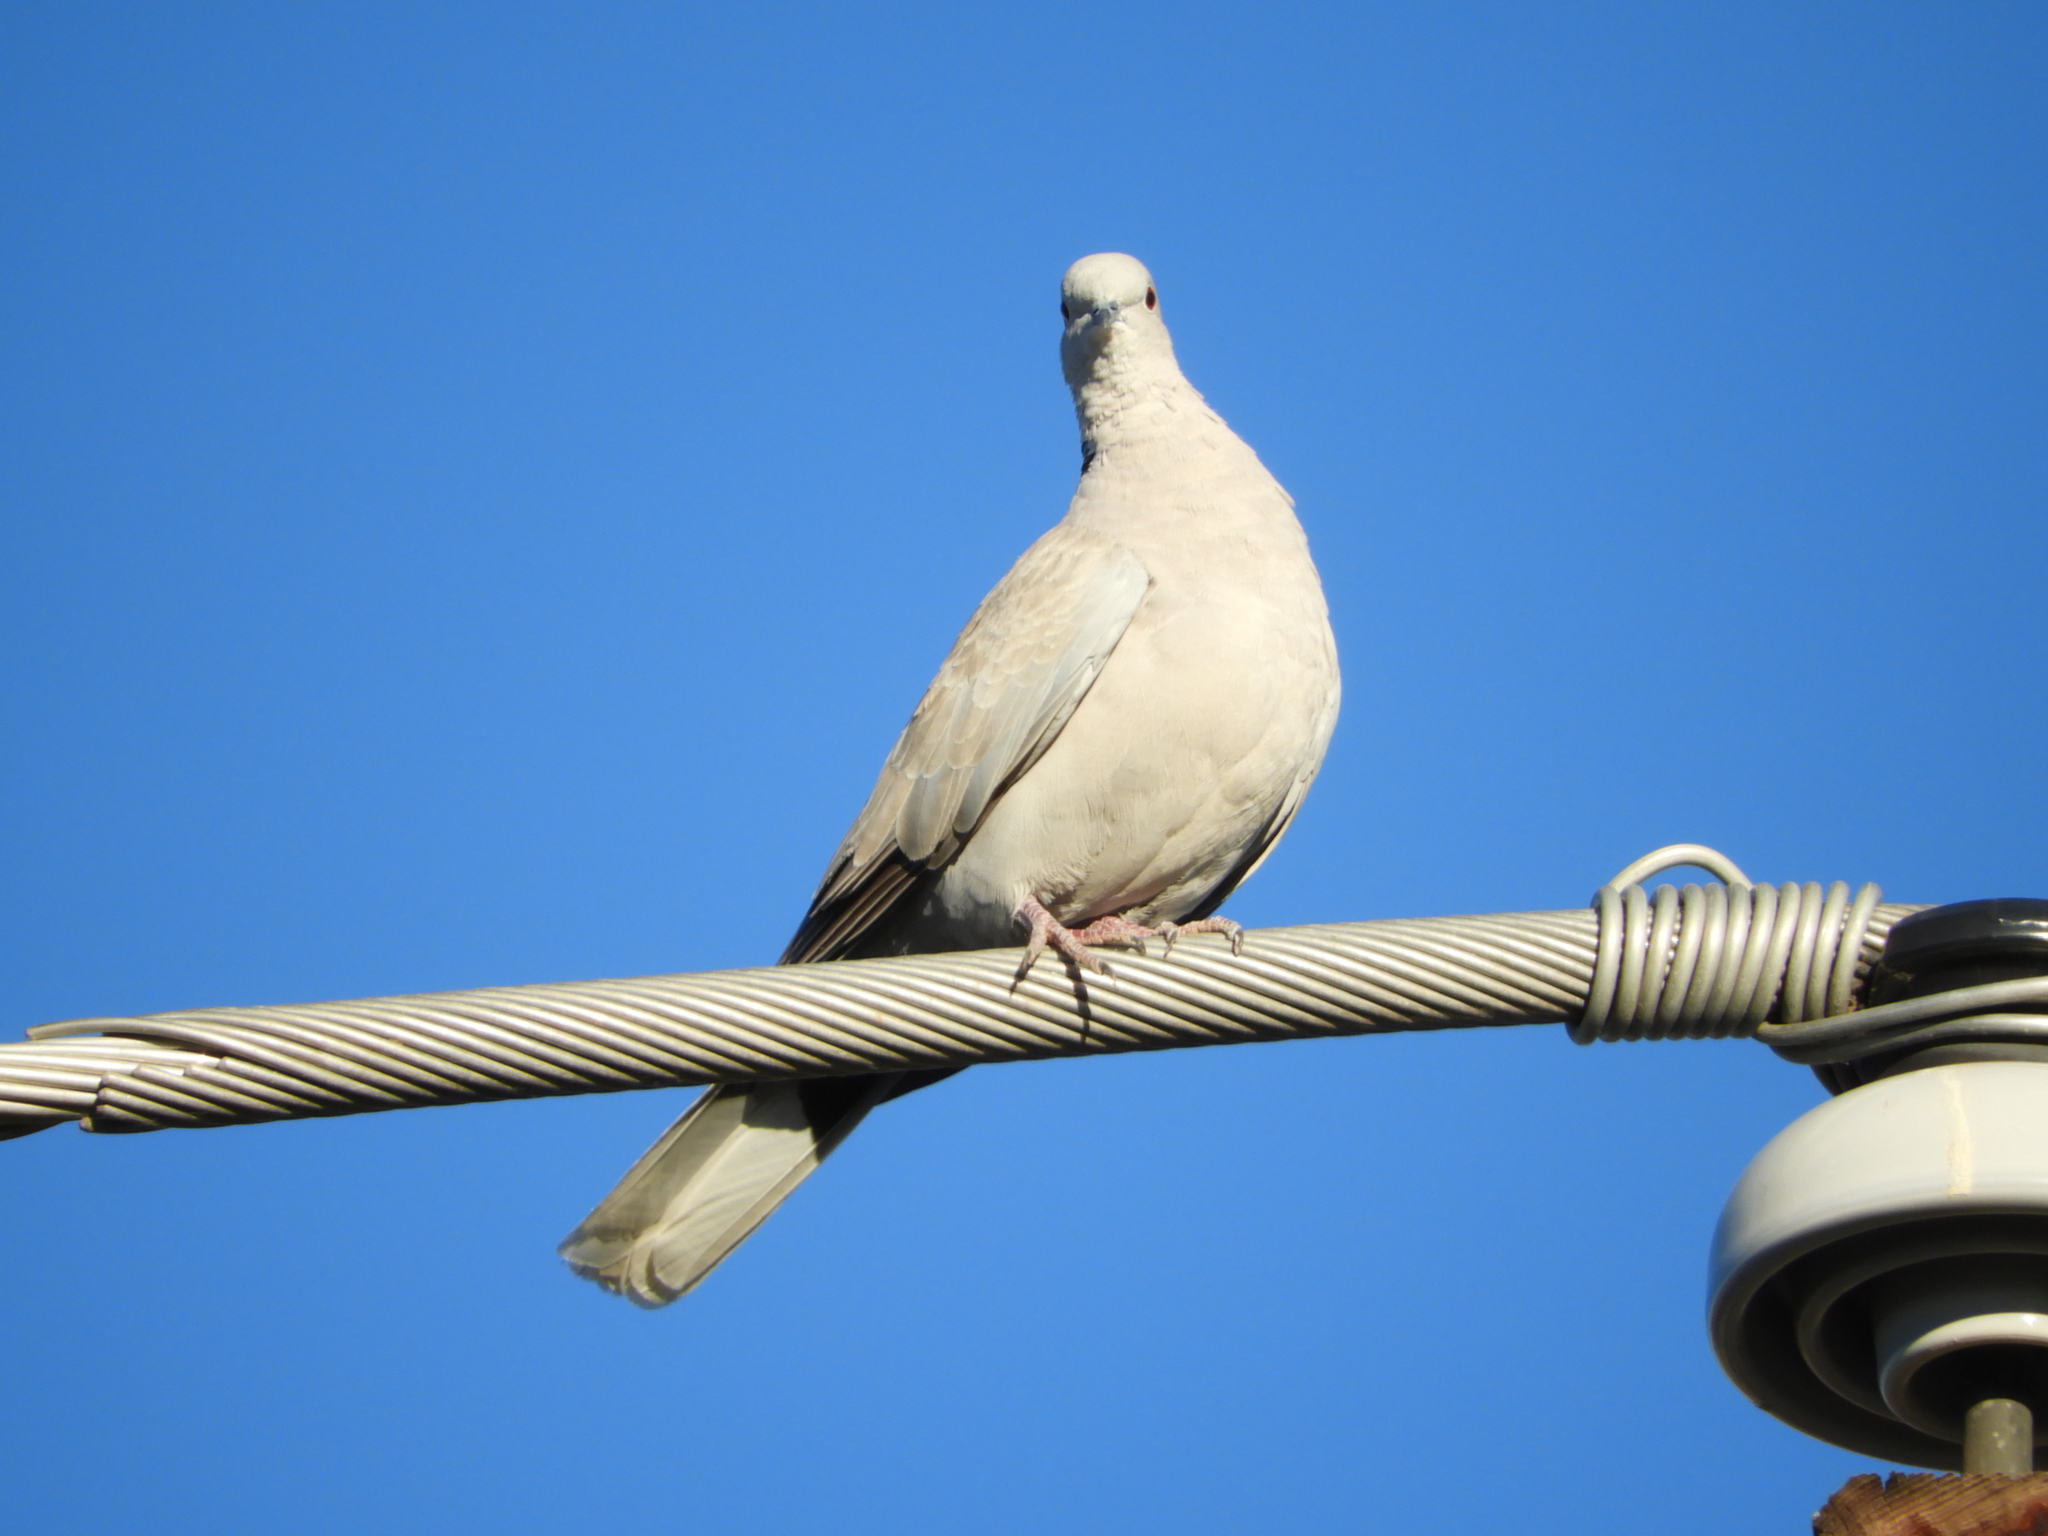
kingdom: Animalia
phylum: Chordata
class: Aves
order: Columbiformes
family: Columbidae
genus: Streptopelia
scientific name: Streptopelia decaocto
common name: Eurasian collared dove
